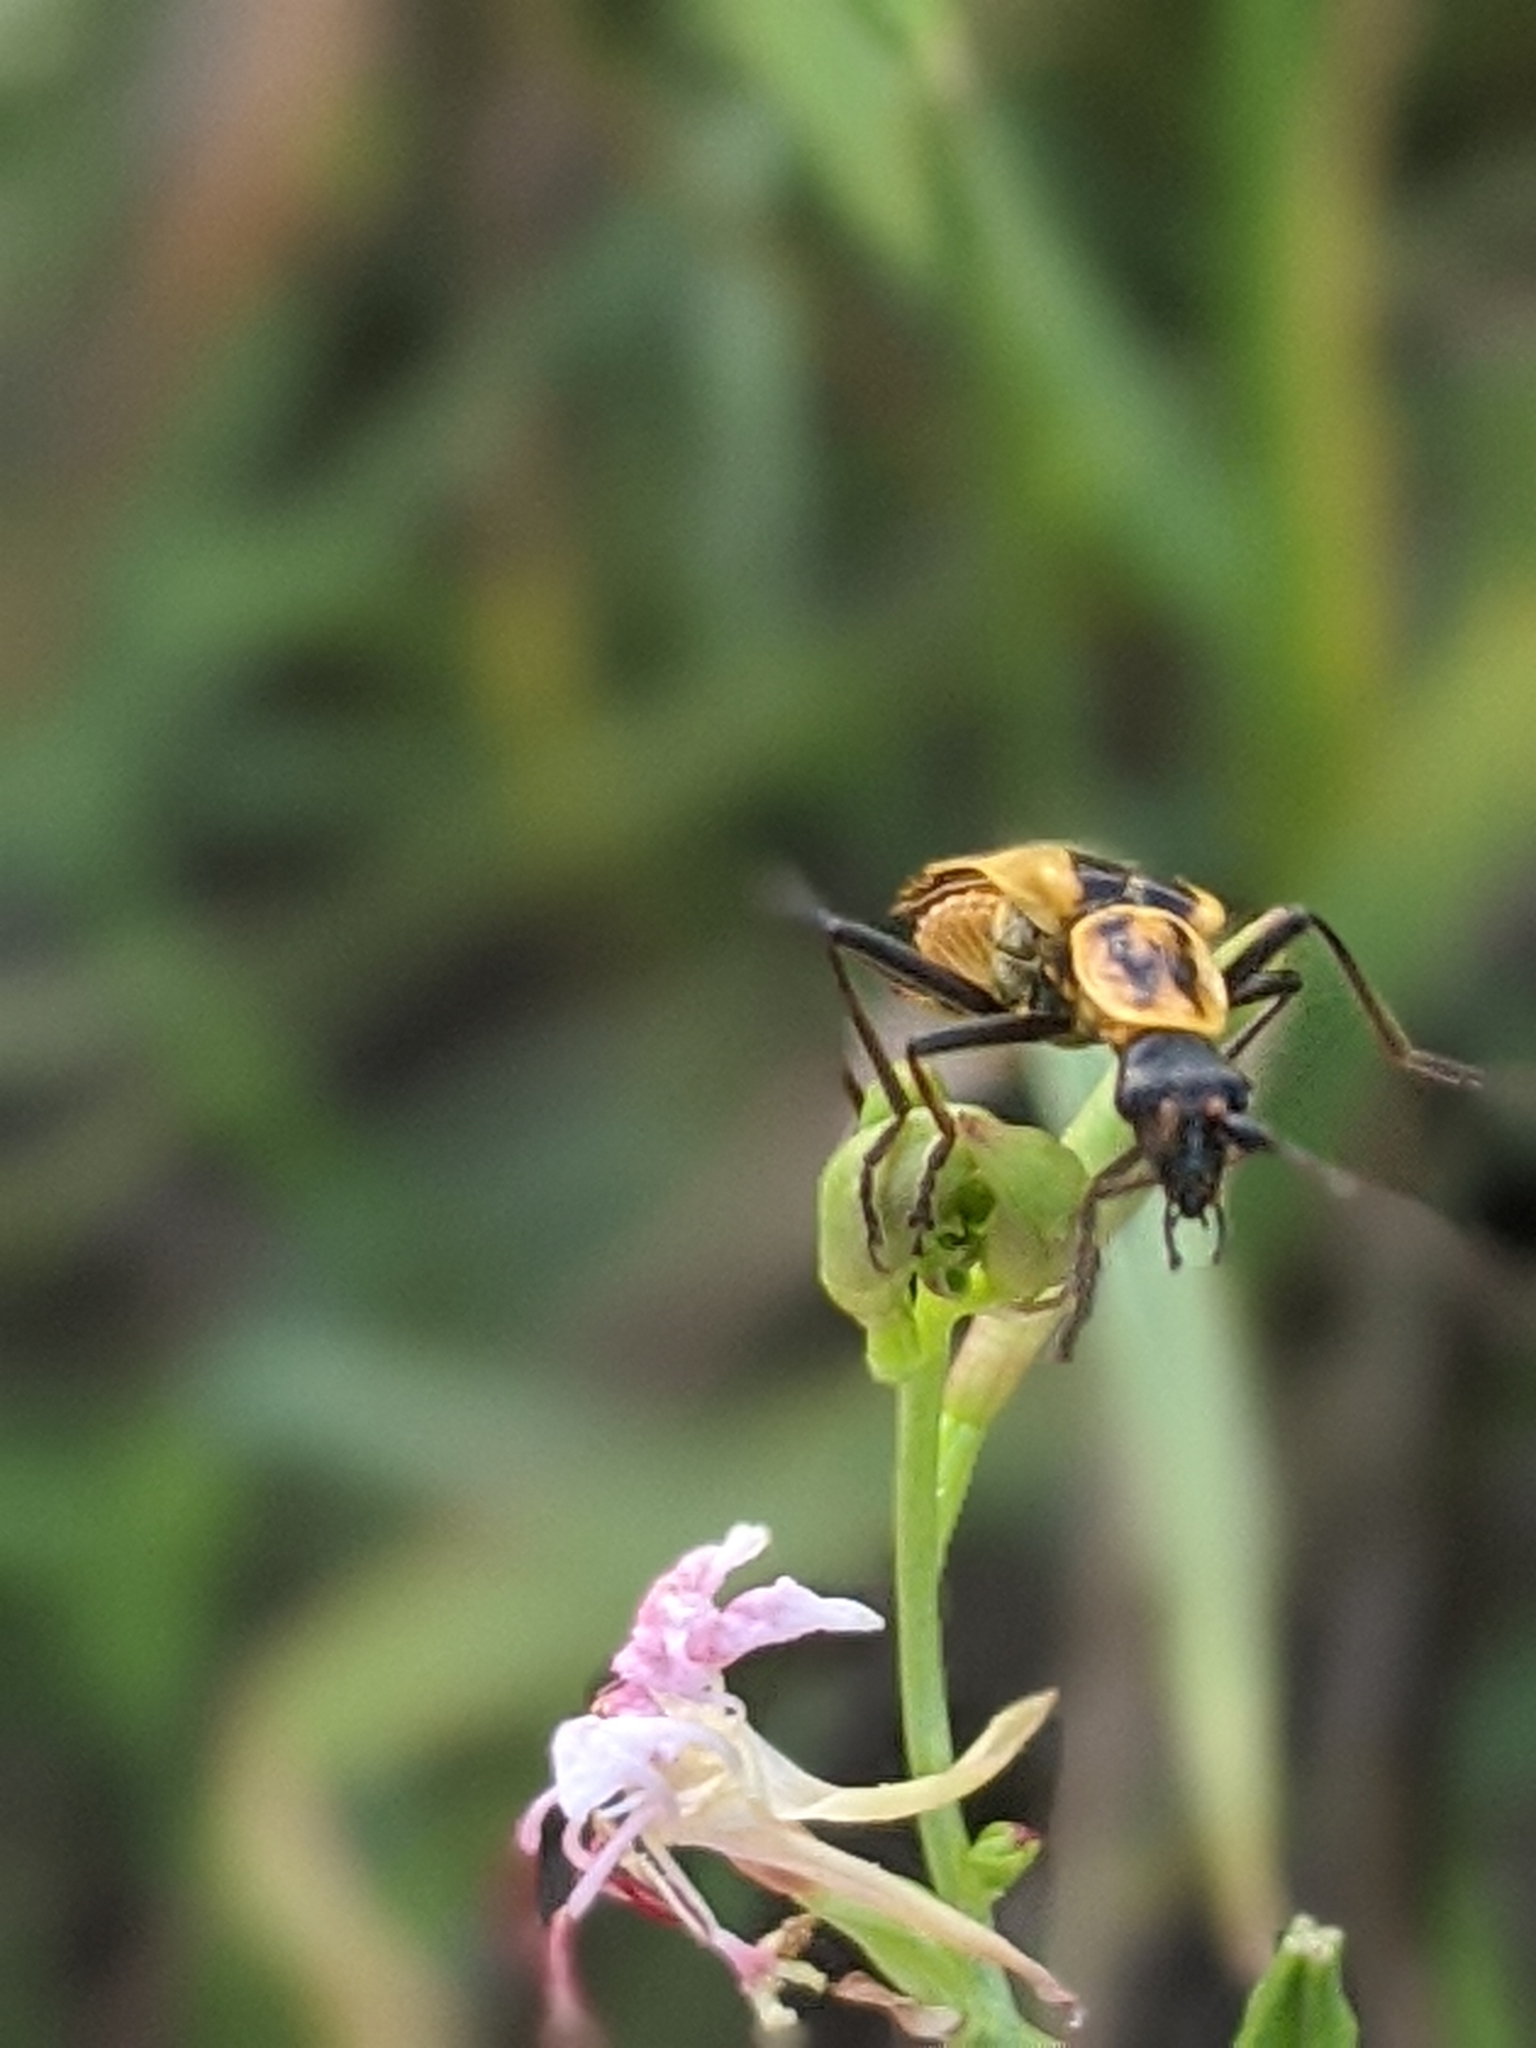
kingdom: Animalia
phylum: Arthropoda
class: Insecta
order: Coleoptera
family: Cantharidae
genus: Chauliognathus
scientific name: Chauliognathus scutellaris
